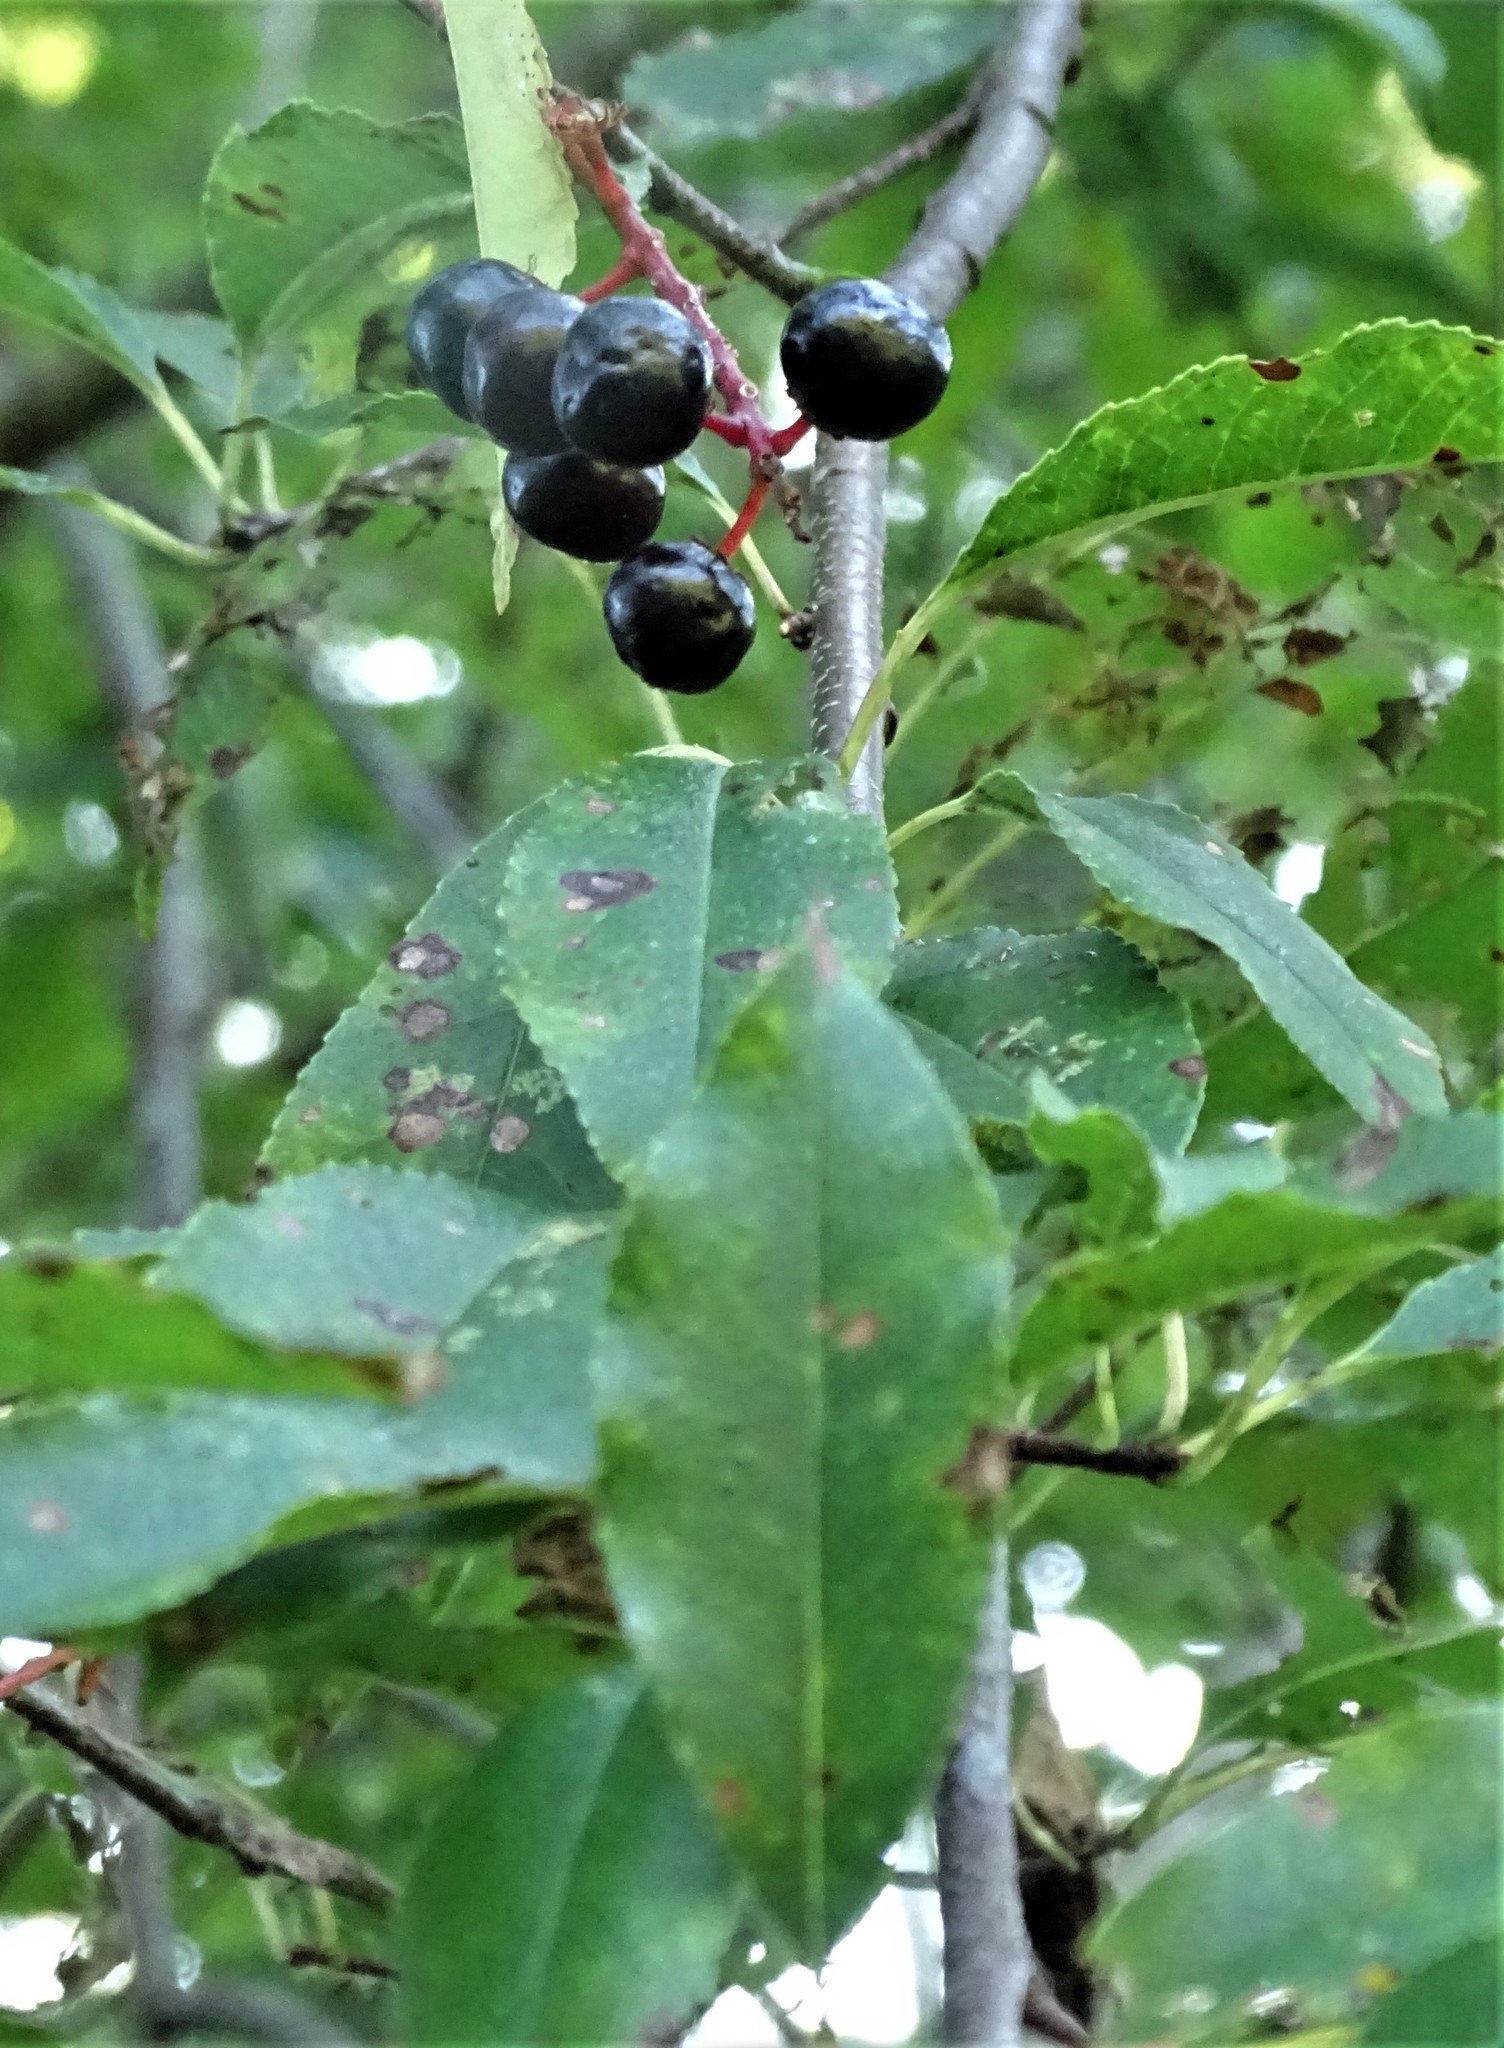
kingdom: Plantae
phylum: Tracheophyta
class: Magnoliopsida
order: Rosales
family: Rosaceae
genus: Prunus
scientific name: Prunus serotina
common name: Black cherry
